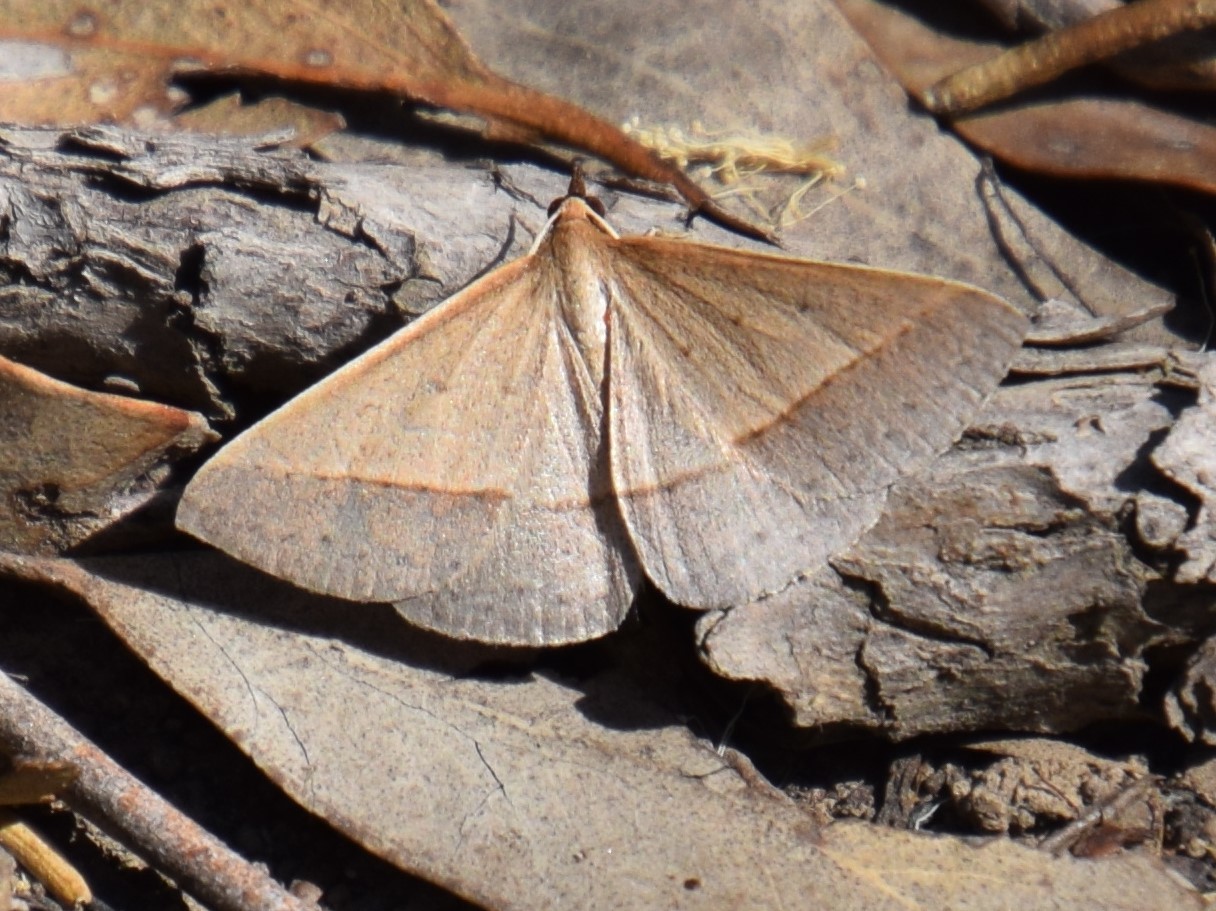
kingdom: Animalia
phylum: Arthropoda
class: Insecta
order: Lepidoptera
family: Geometridae
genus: Epidesmia
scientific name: Epidesmia tryxaria
